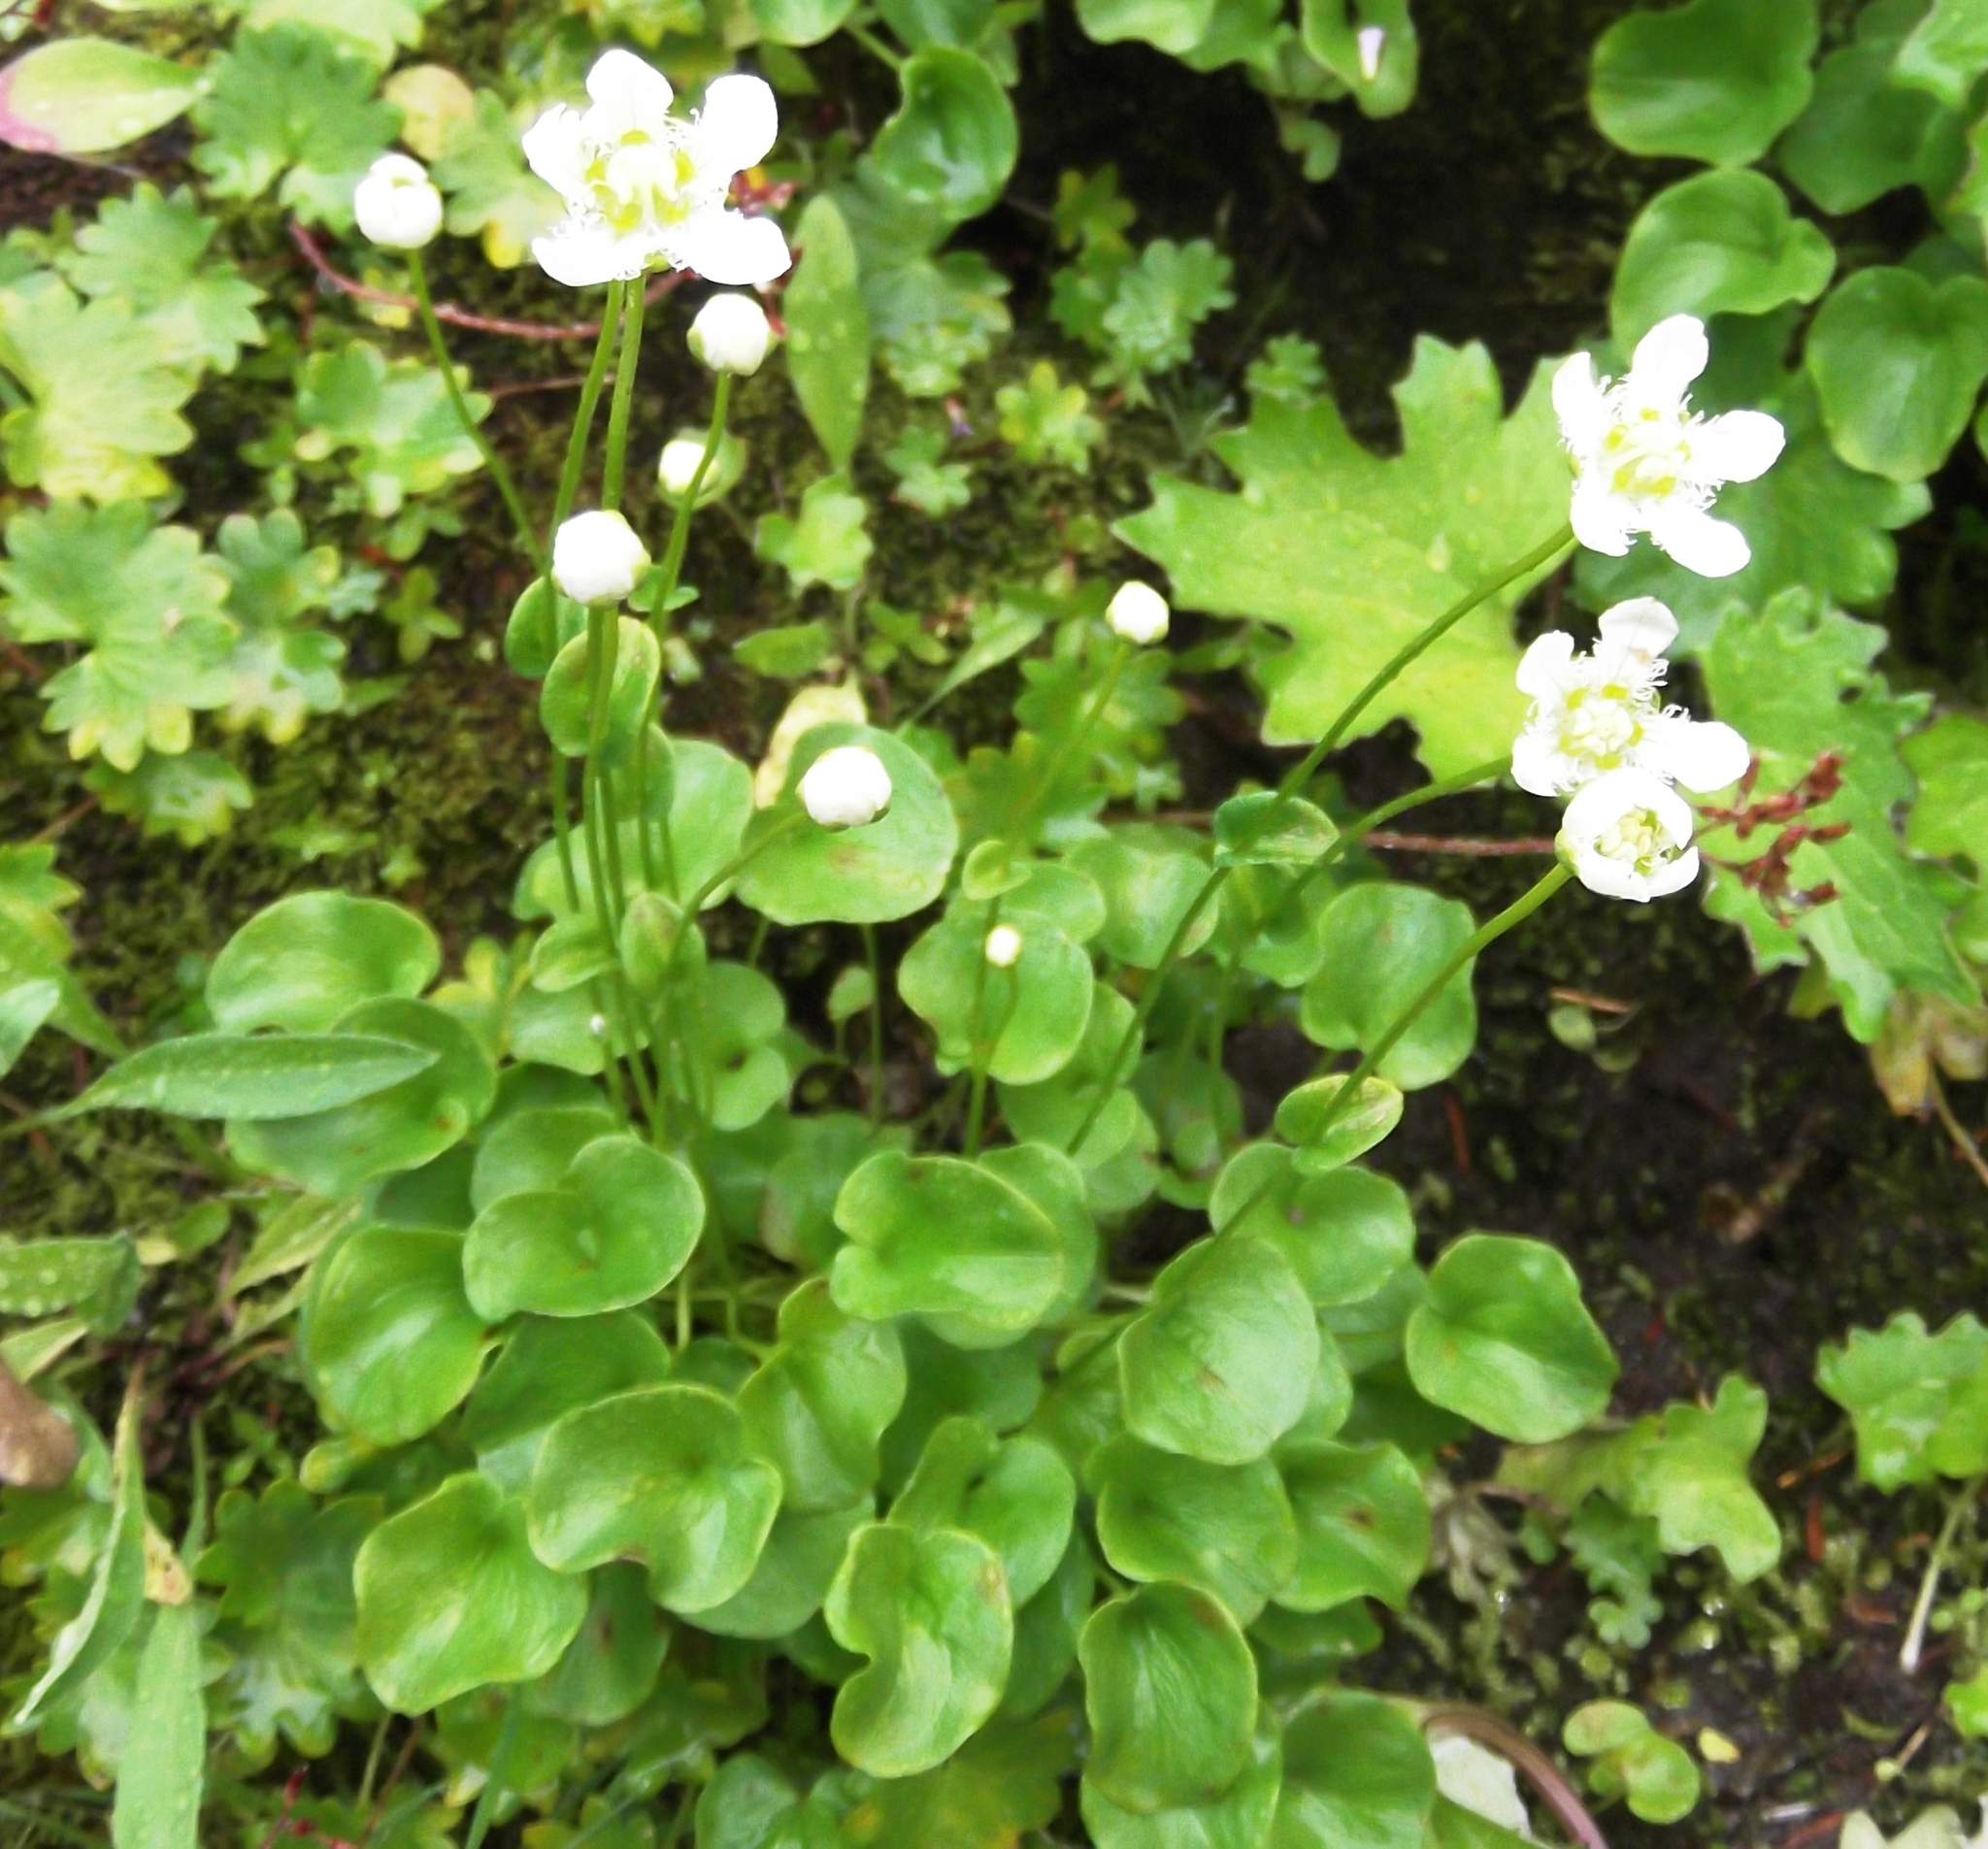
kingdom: Plantae
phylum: Tracheophyta
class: Magnoliopsida
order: Celastrales
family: Parnassiaceae
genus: Parnassia
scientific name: Parnassia fimbriata
